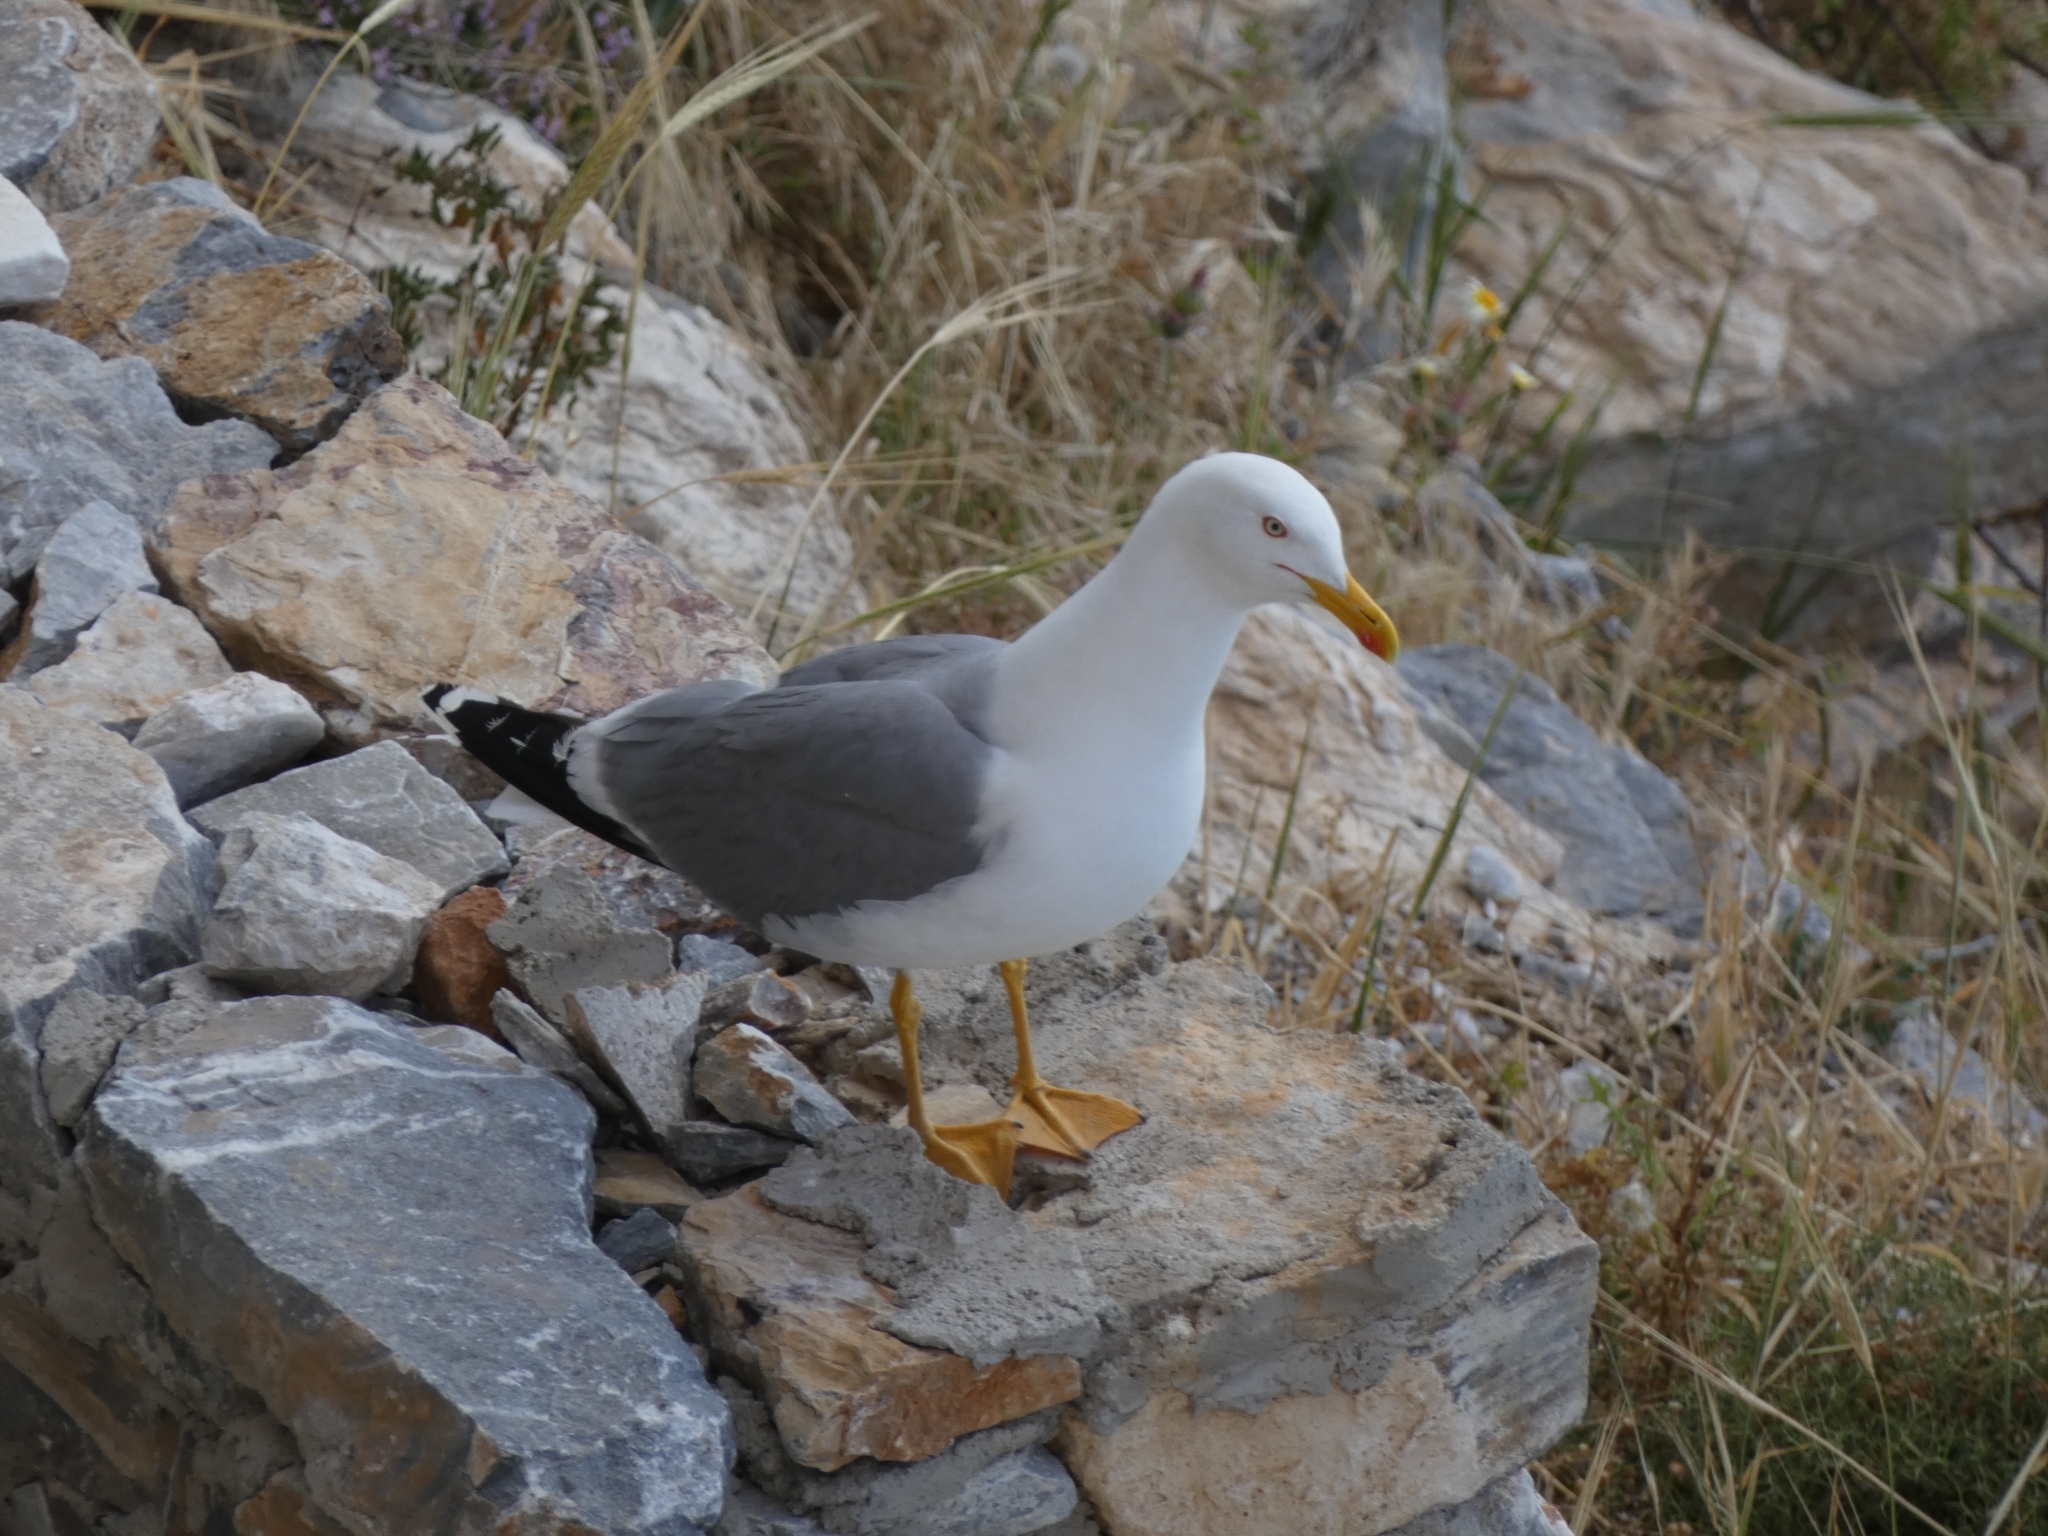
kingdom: Animalia
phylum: Chordata
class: Aves
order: Charadriiformes
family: Laridae
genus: Larus
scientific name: Larus michahellis
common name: Yellow-legged gull
